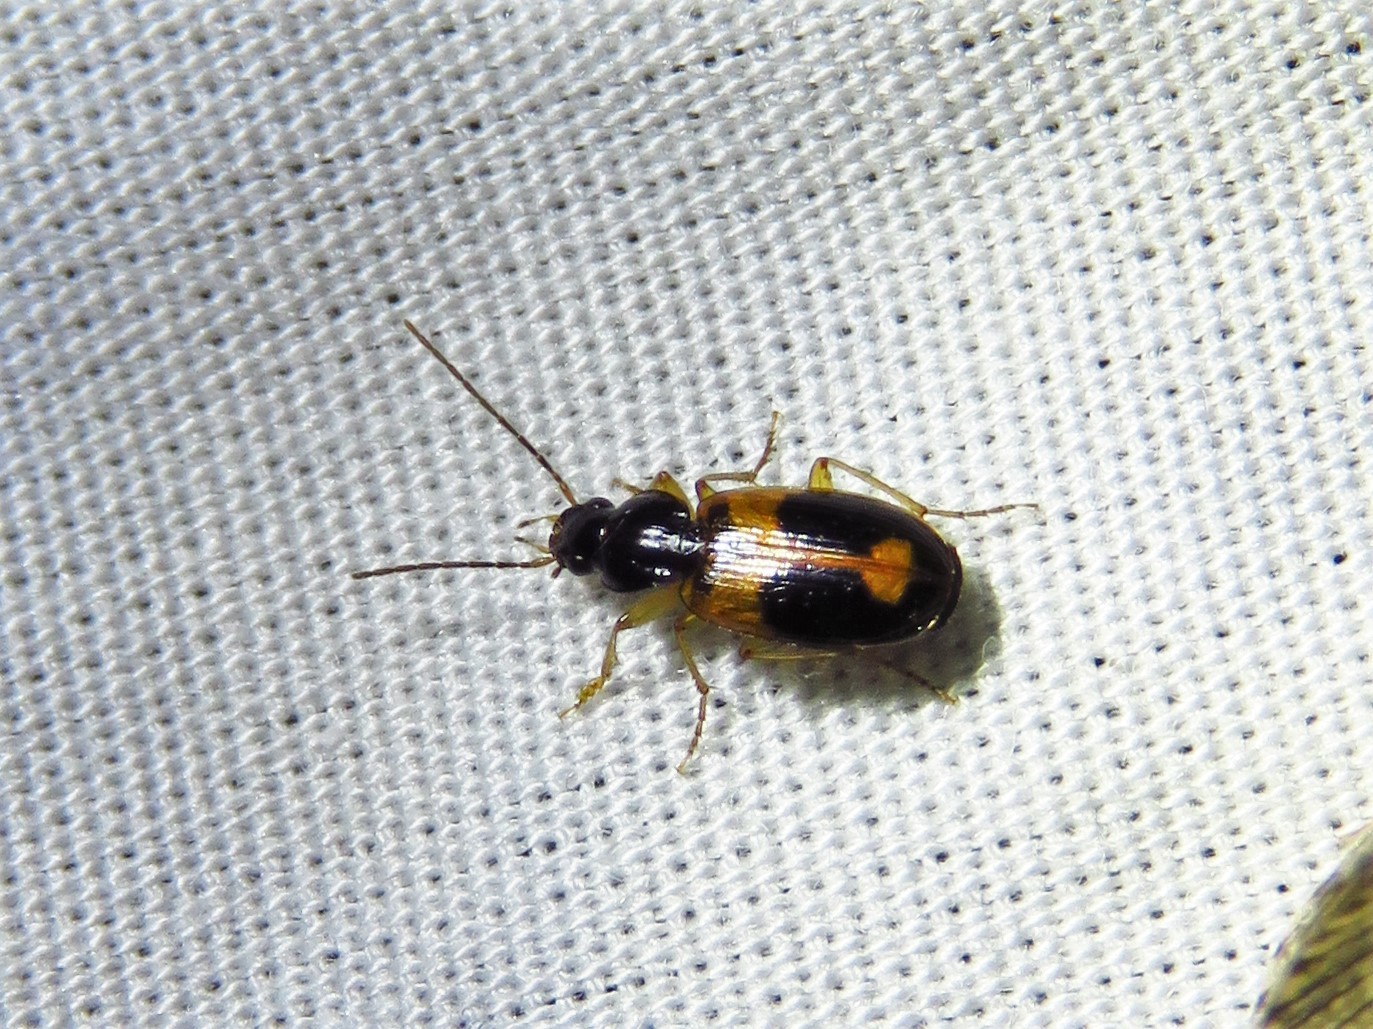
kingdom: Animalia
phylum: Arthropoda
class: Insecta
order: Coleoptera
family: Carabidae
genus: Badister
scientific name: Badister elegans
